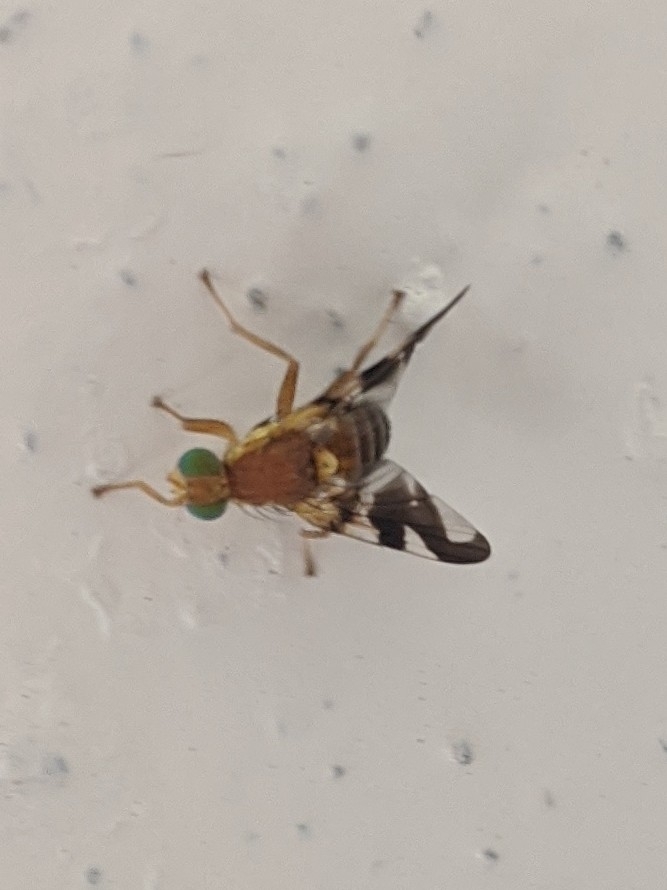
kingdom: Animalia
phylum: Arthropoda
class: Insecta
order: Diptera
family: Tephritidae
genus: Rhagoletis
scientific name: Rhagoletis suavis
